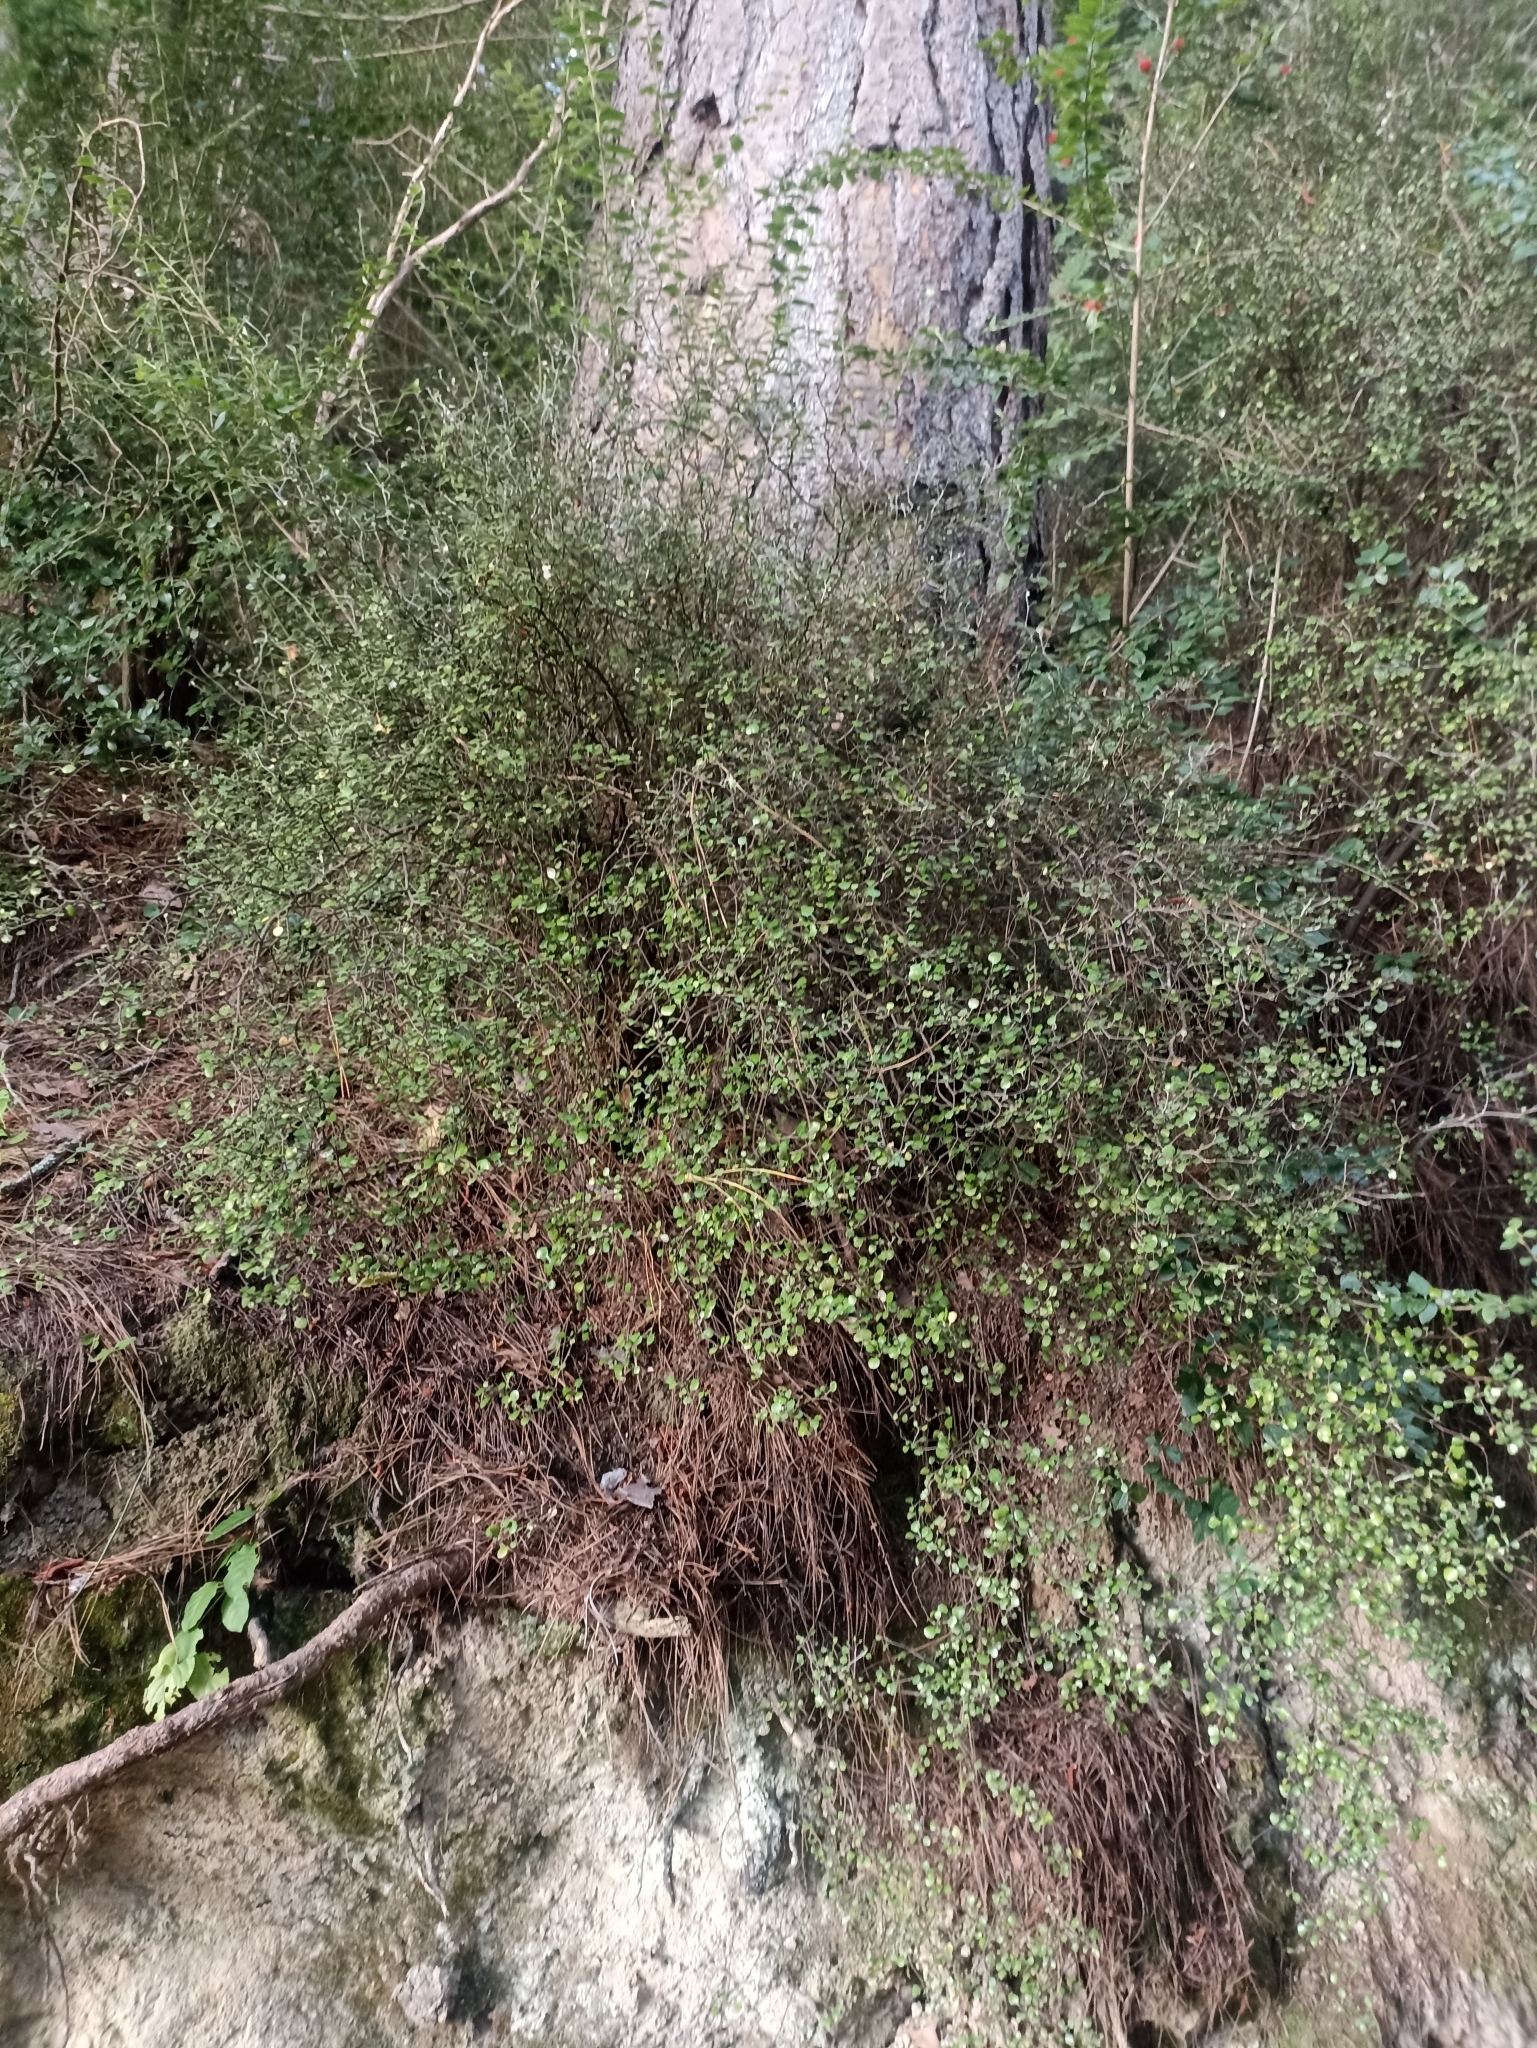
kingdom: Plantae
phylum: Tracheophyta
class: Magnoliopsida
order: Asterales
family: Argophyllaceae
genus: Corokia
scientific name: Corokia cotoneaster
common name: Wire nettingbush
